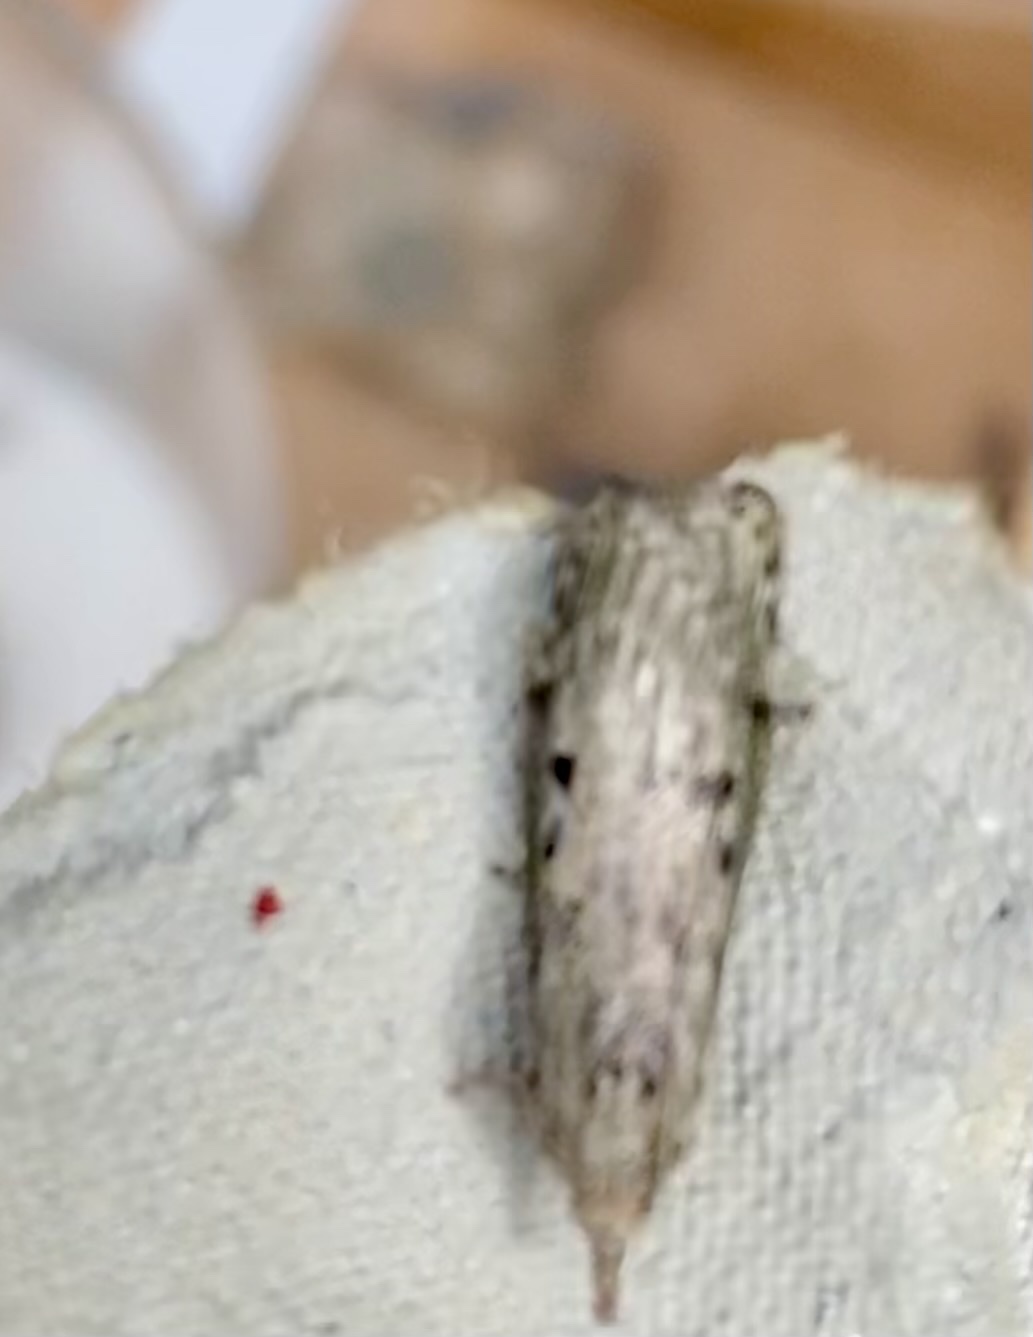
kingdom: Animalia
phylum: Arthropoda
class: Insecta
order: Lepidoptera
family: Pyralidae
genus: Aphomia
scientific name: Aphomia sociella
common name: Bee moth
